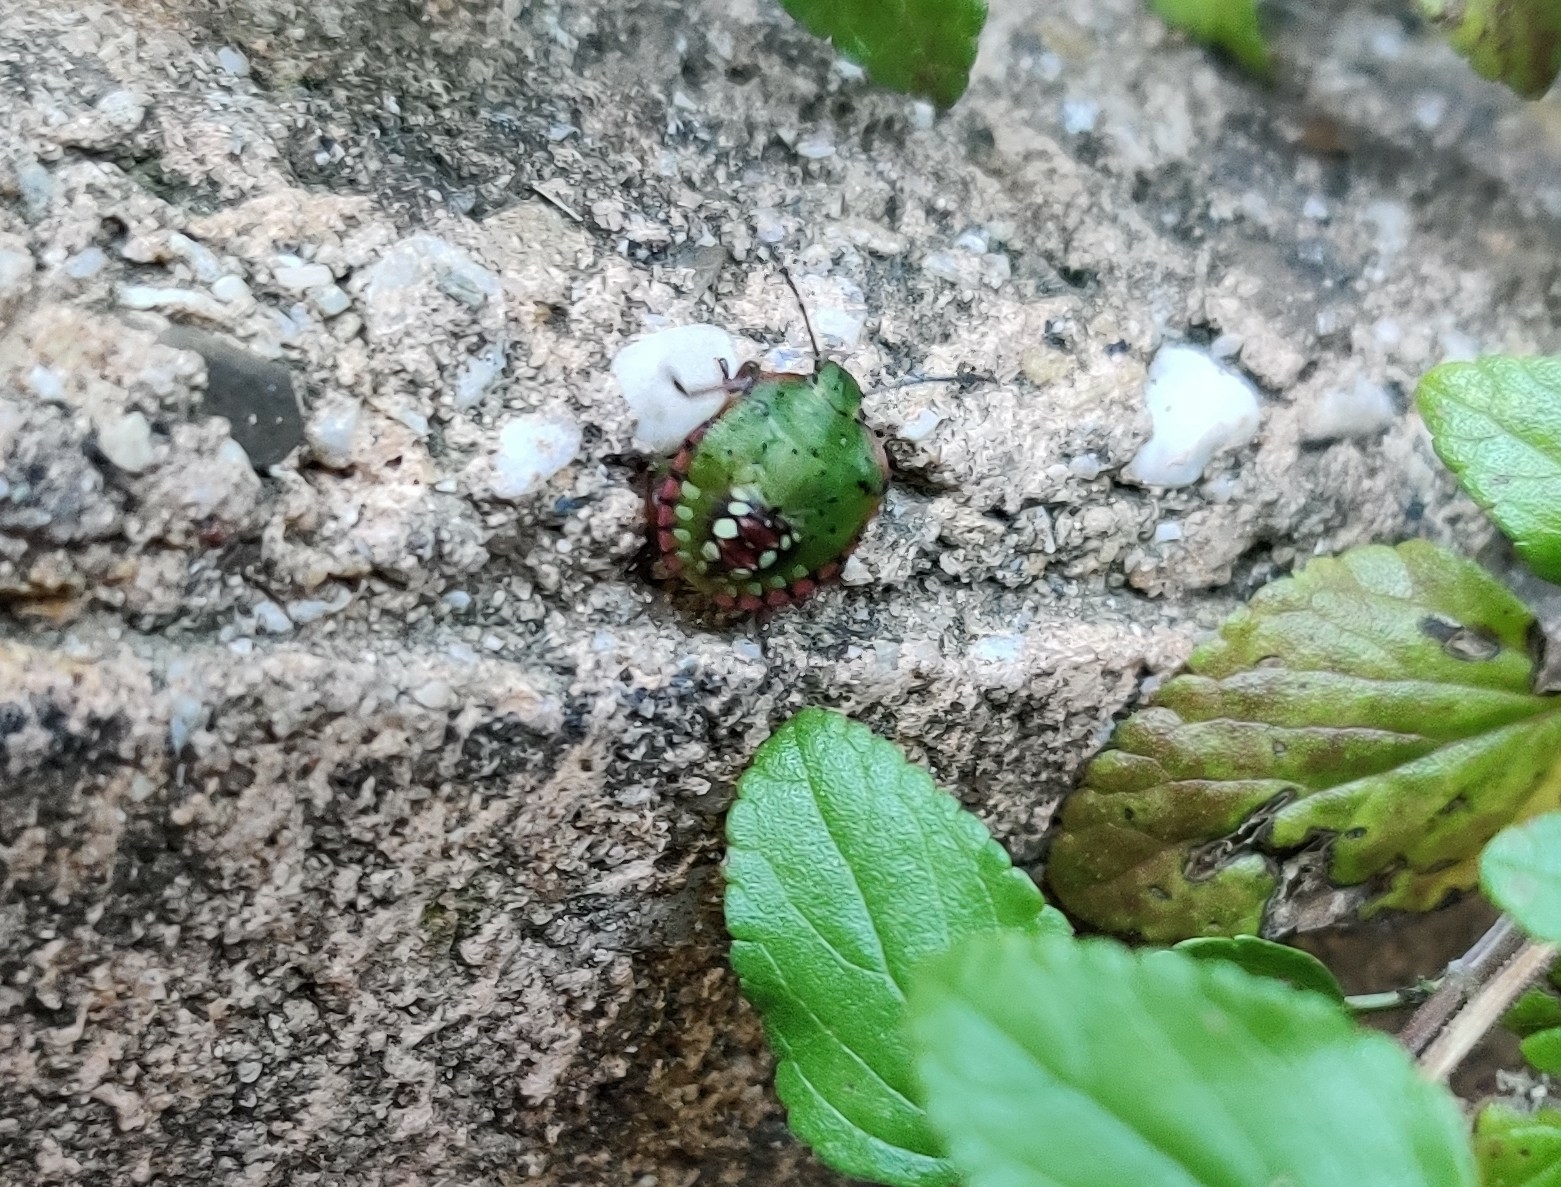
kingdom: Animalia
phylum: Arthropoda
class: Insecta
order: Hemiptera
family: Pentatomidae
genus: Nezara
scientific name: Nezara viridula
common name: Southern green stink bug
